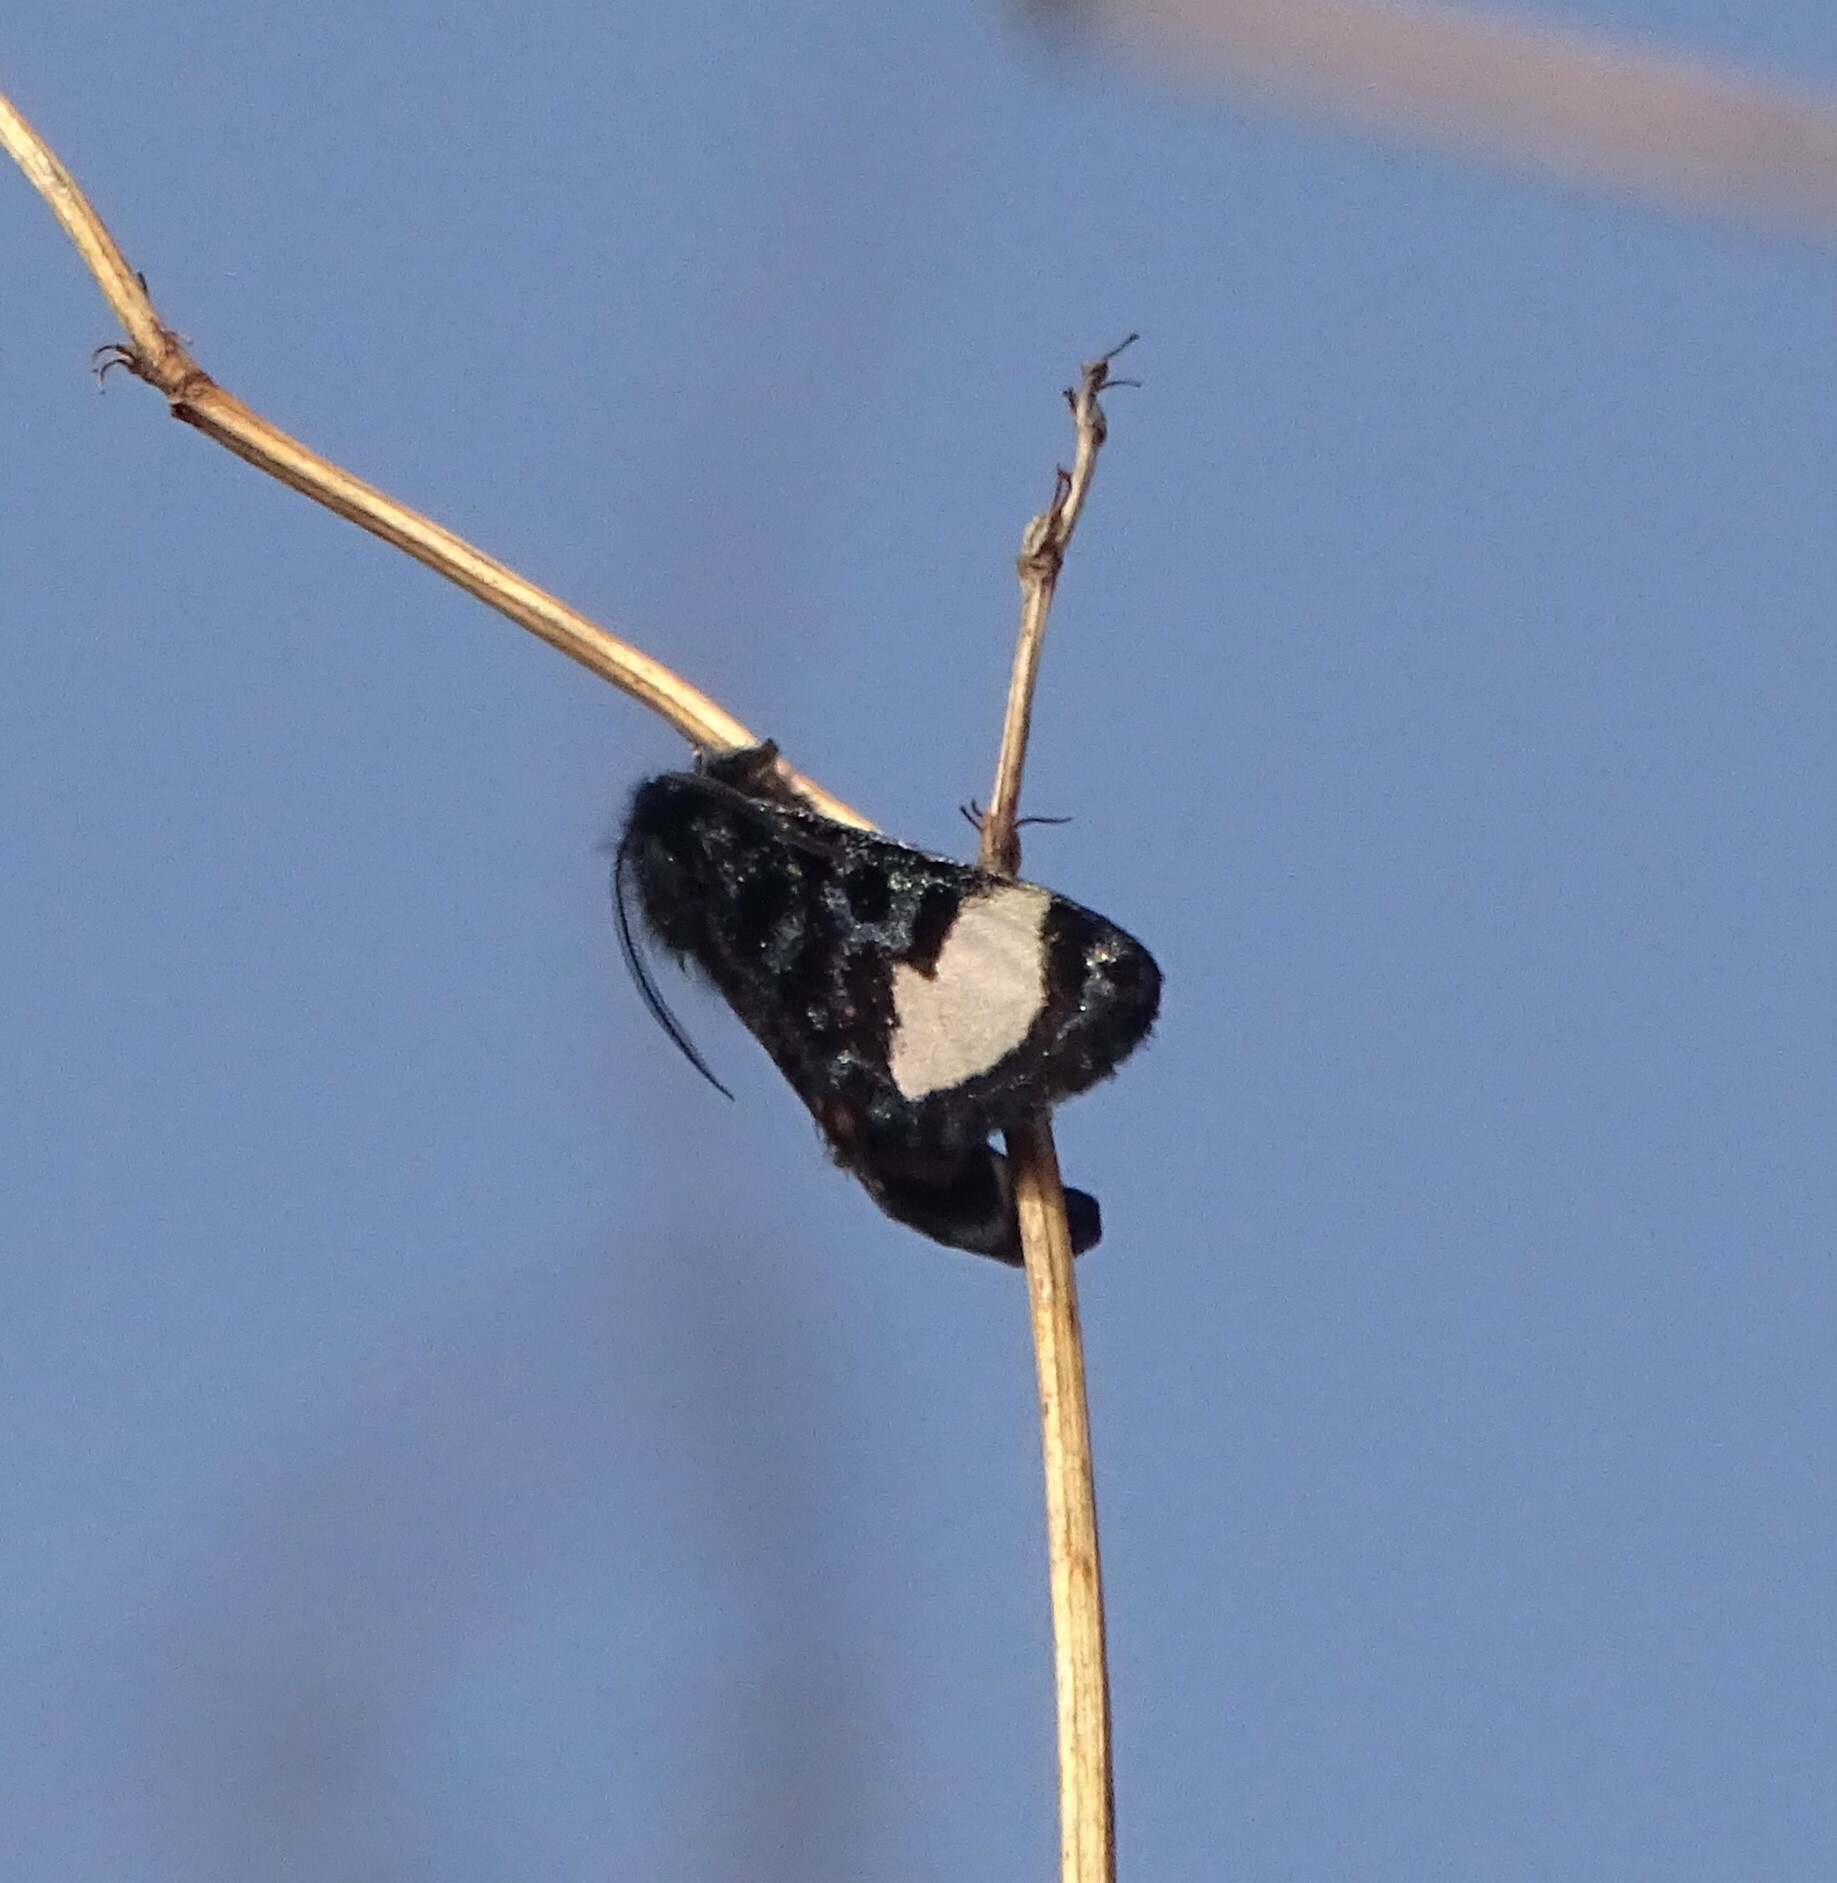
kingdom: Animalia
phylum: Arthropoda
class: Insecta
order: Lepidoptera
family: Noctuidae
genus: Psychomorpha
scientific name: Psychomorpha epimenis
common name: Grapevine epimenis moth
